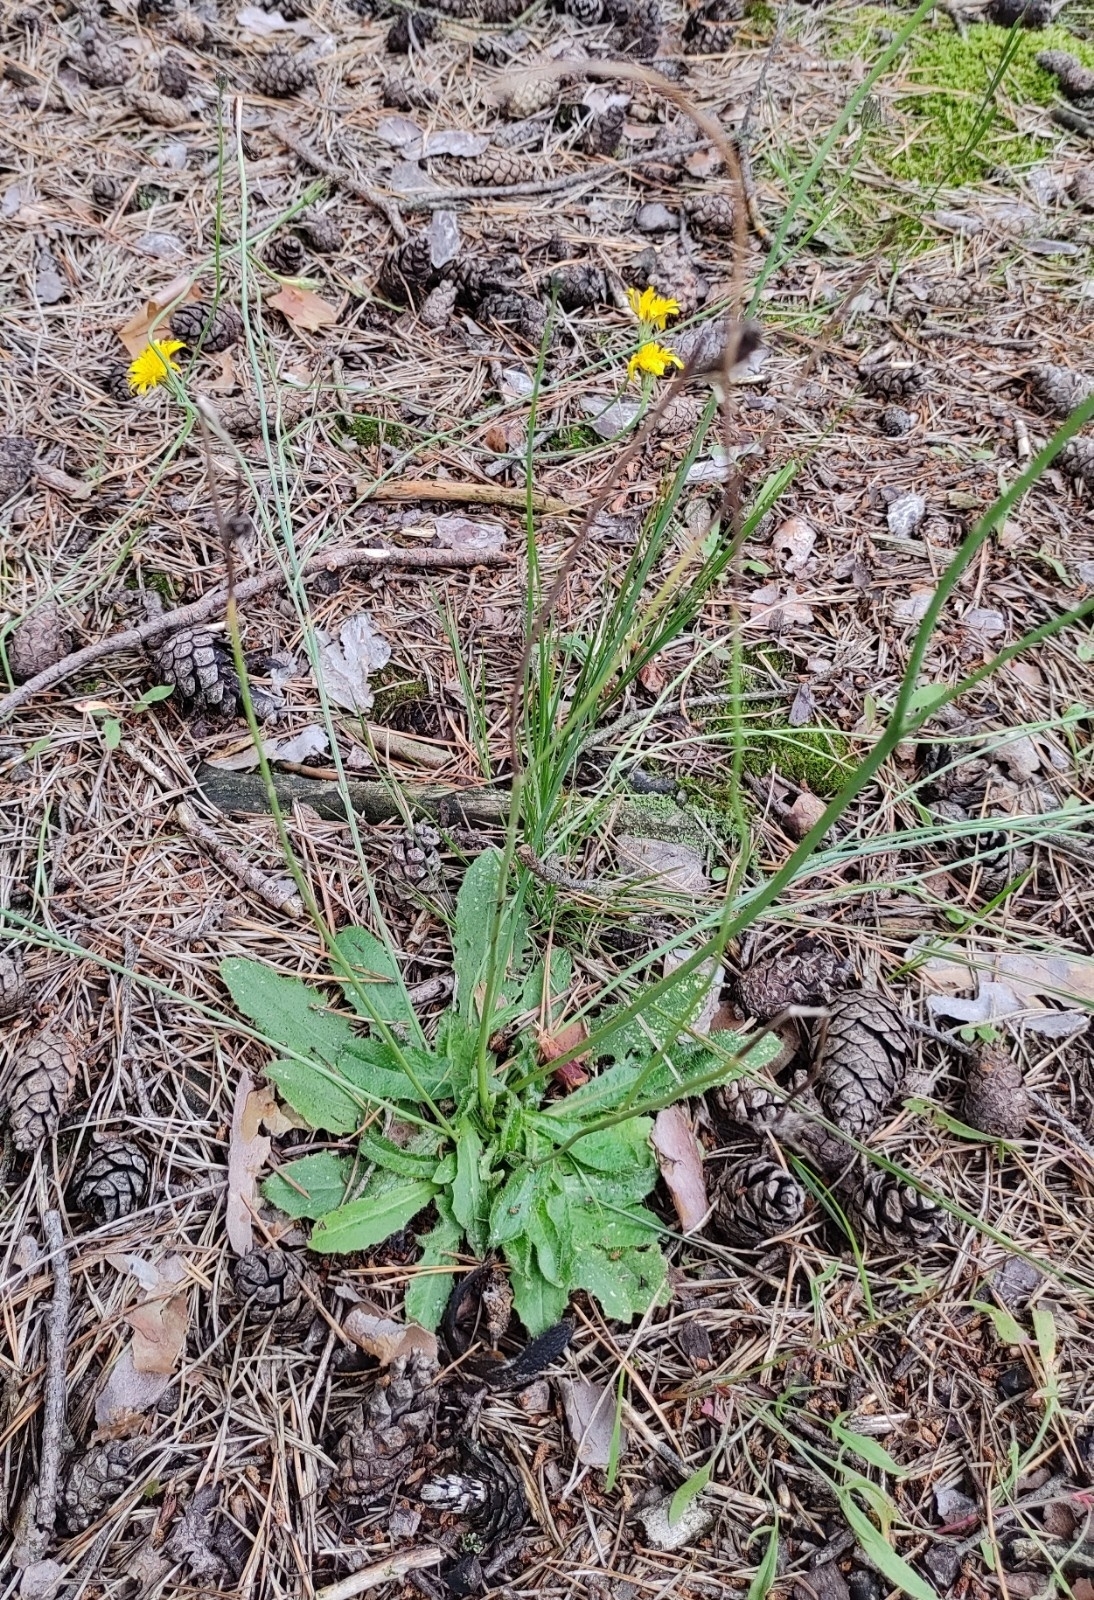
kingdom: Plantae
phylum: Tracheophyta
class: Magnoliopsida
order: Asterales
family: Asteraceae
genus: Hypochaeris
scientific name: Hypochaeris radicata
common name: Flatweed
